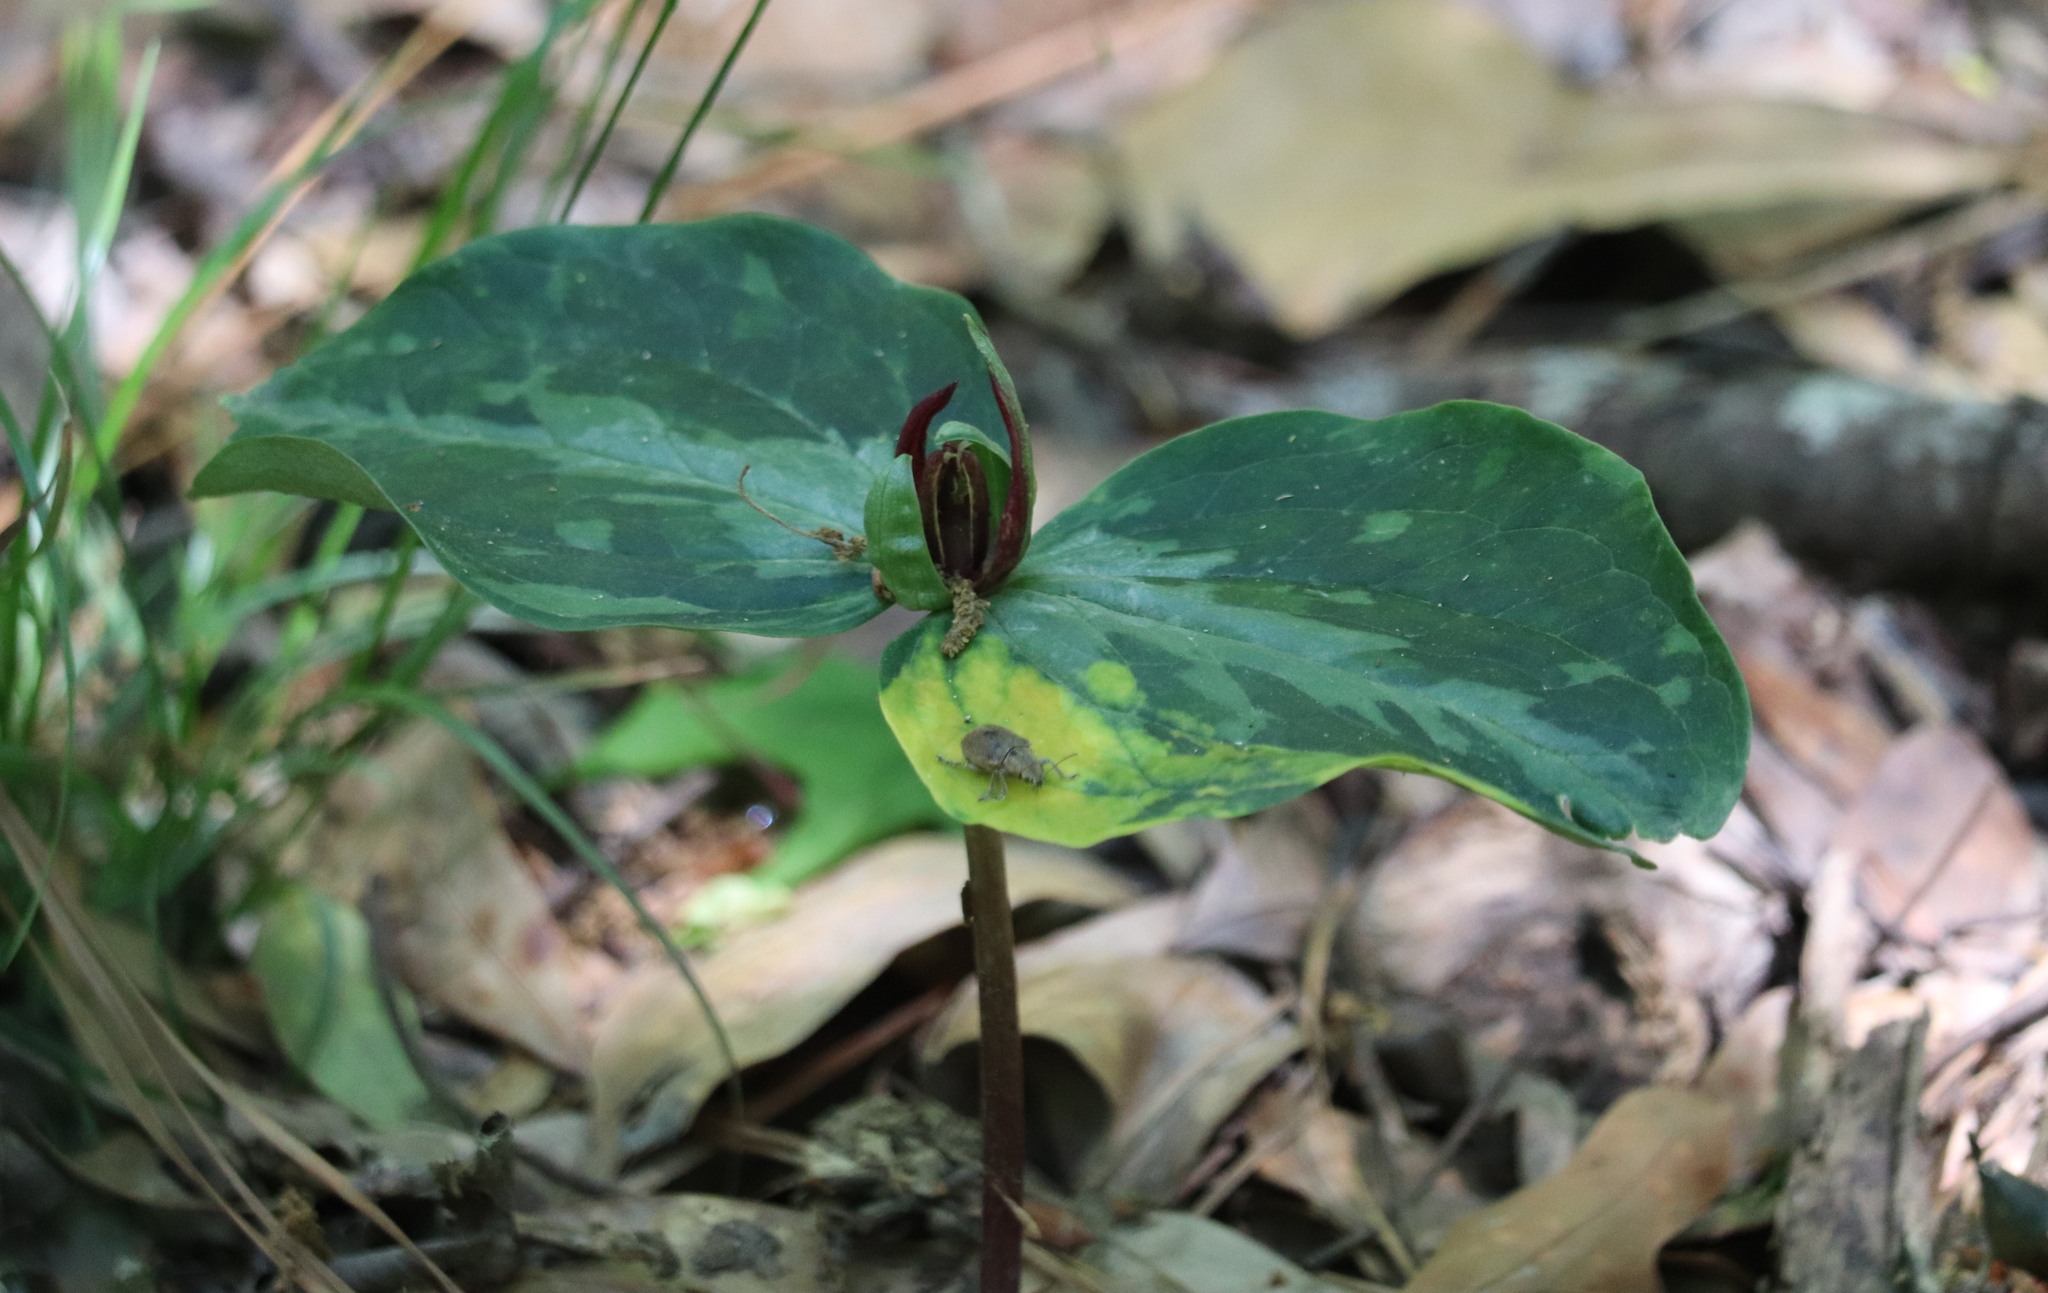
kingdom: Plantae
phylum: Tracheophyta
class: Liliopsida
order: Liliales
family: Melanthiaceae
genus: Trillium
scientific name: Trillium foetidissimum
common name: Mississippi river trillium
